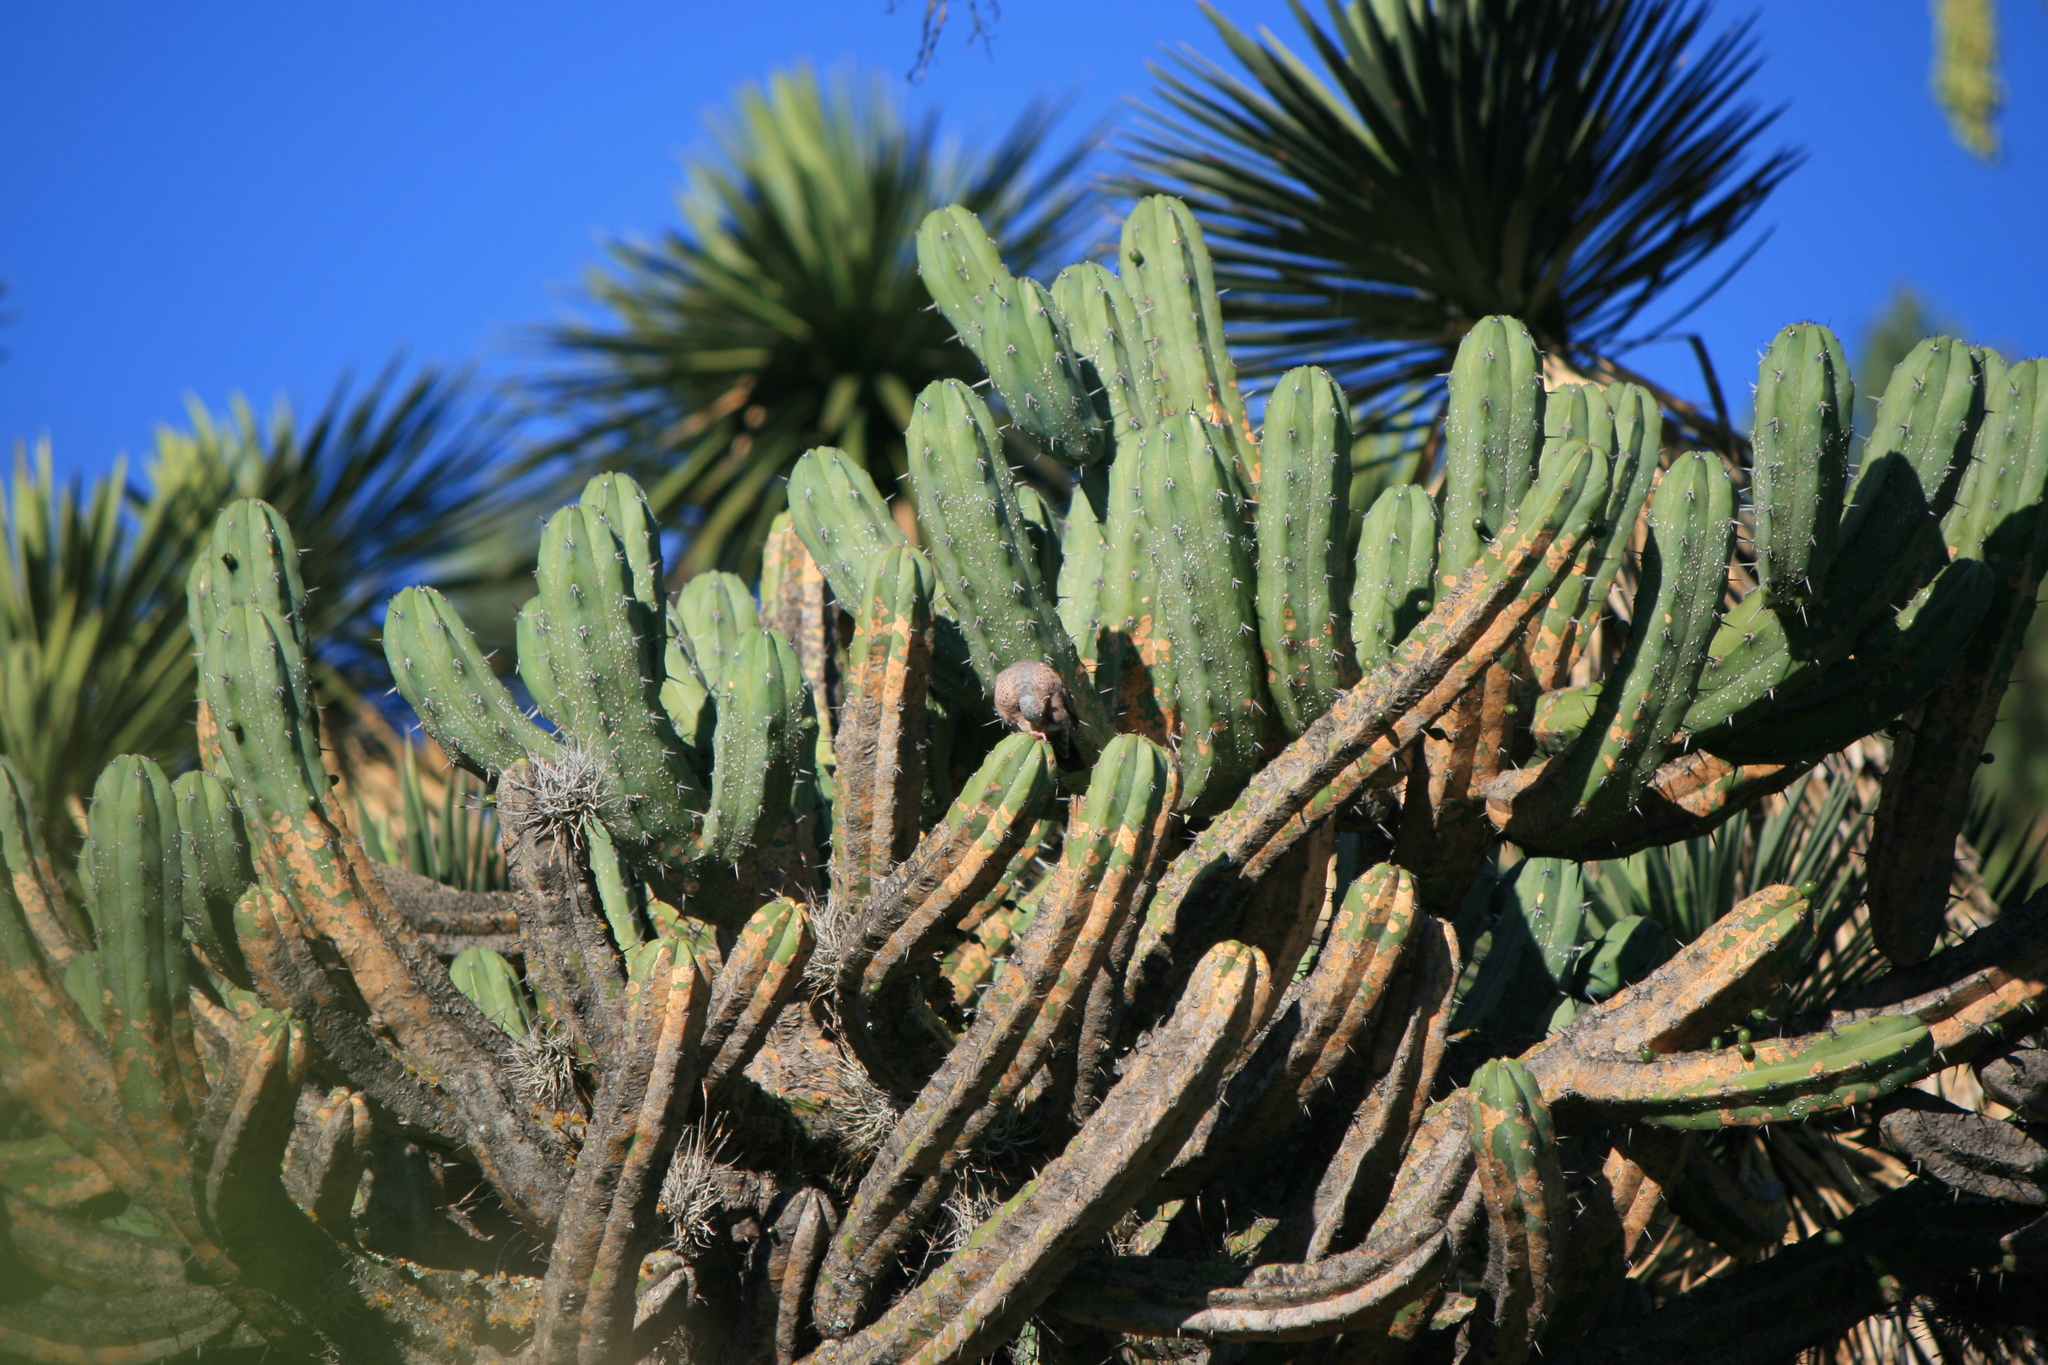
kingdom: Animalia
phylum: Chordata
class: Aves
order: Columbiformes
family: Columbidae
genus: Columbina
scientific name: Columbina passerina
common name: Common ground-dove
